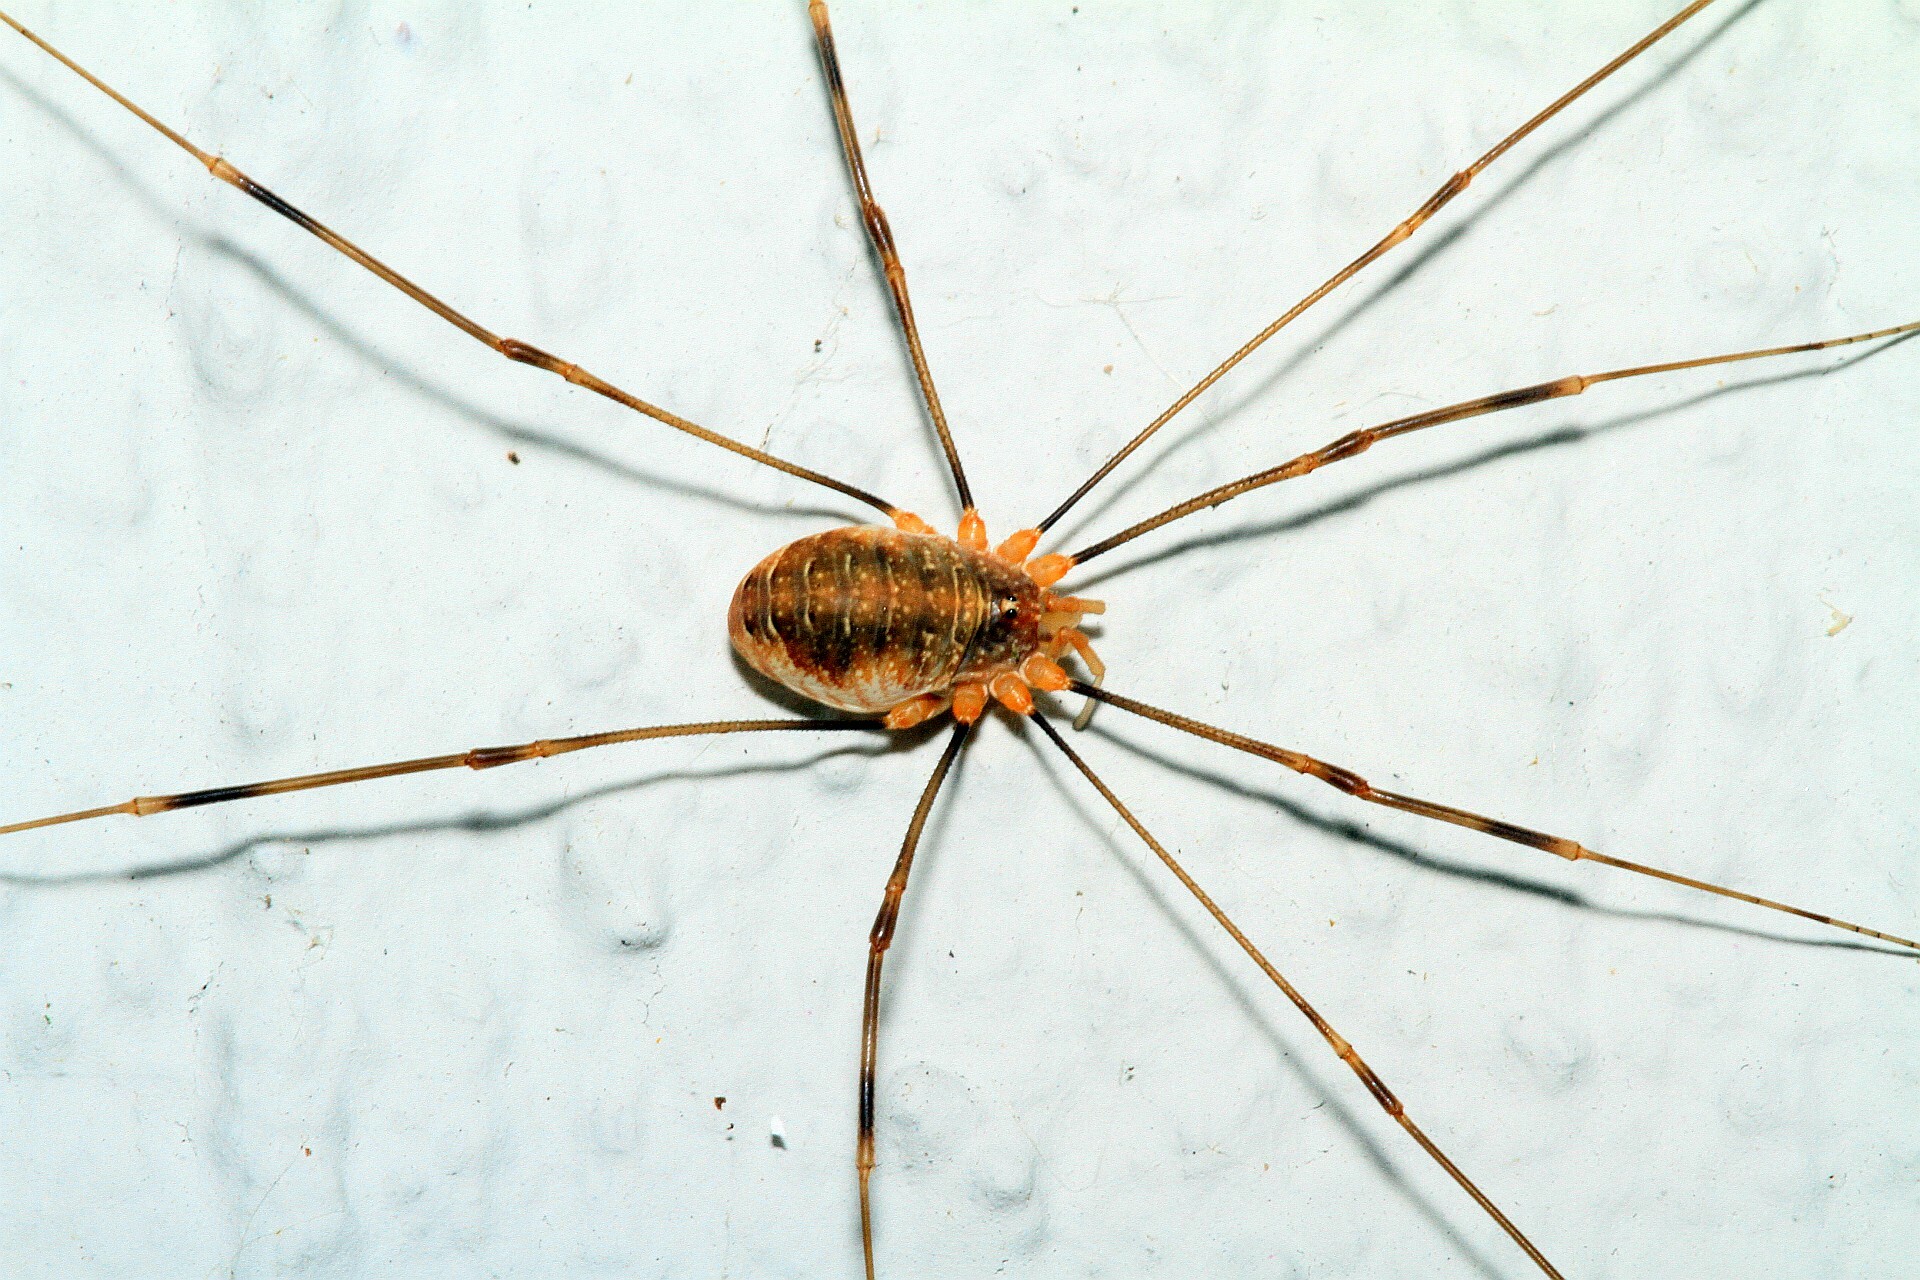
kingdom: Animalia
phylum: Arthropoda
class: Arachnida
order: Opiliones
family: Phalangiidae
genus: Opilio
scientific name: Opilio canestrinii
